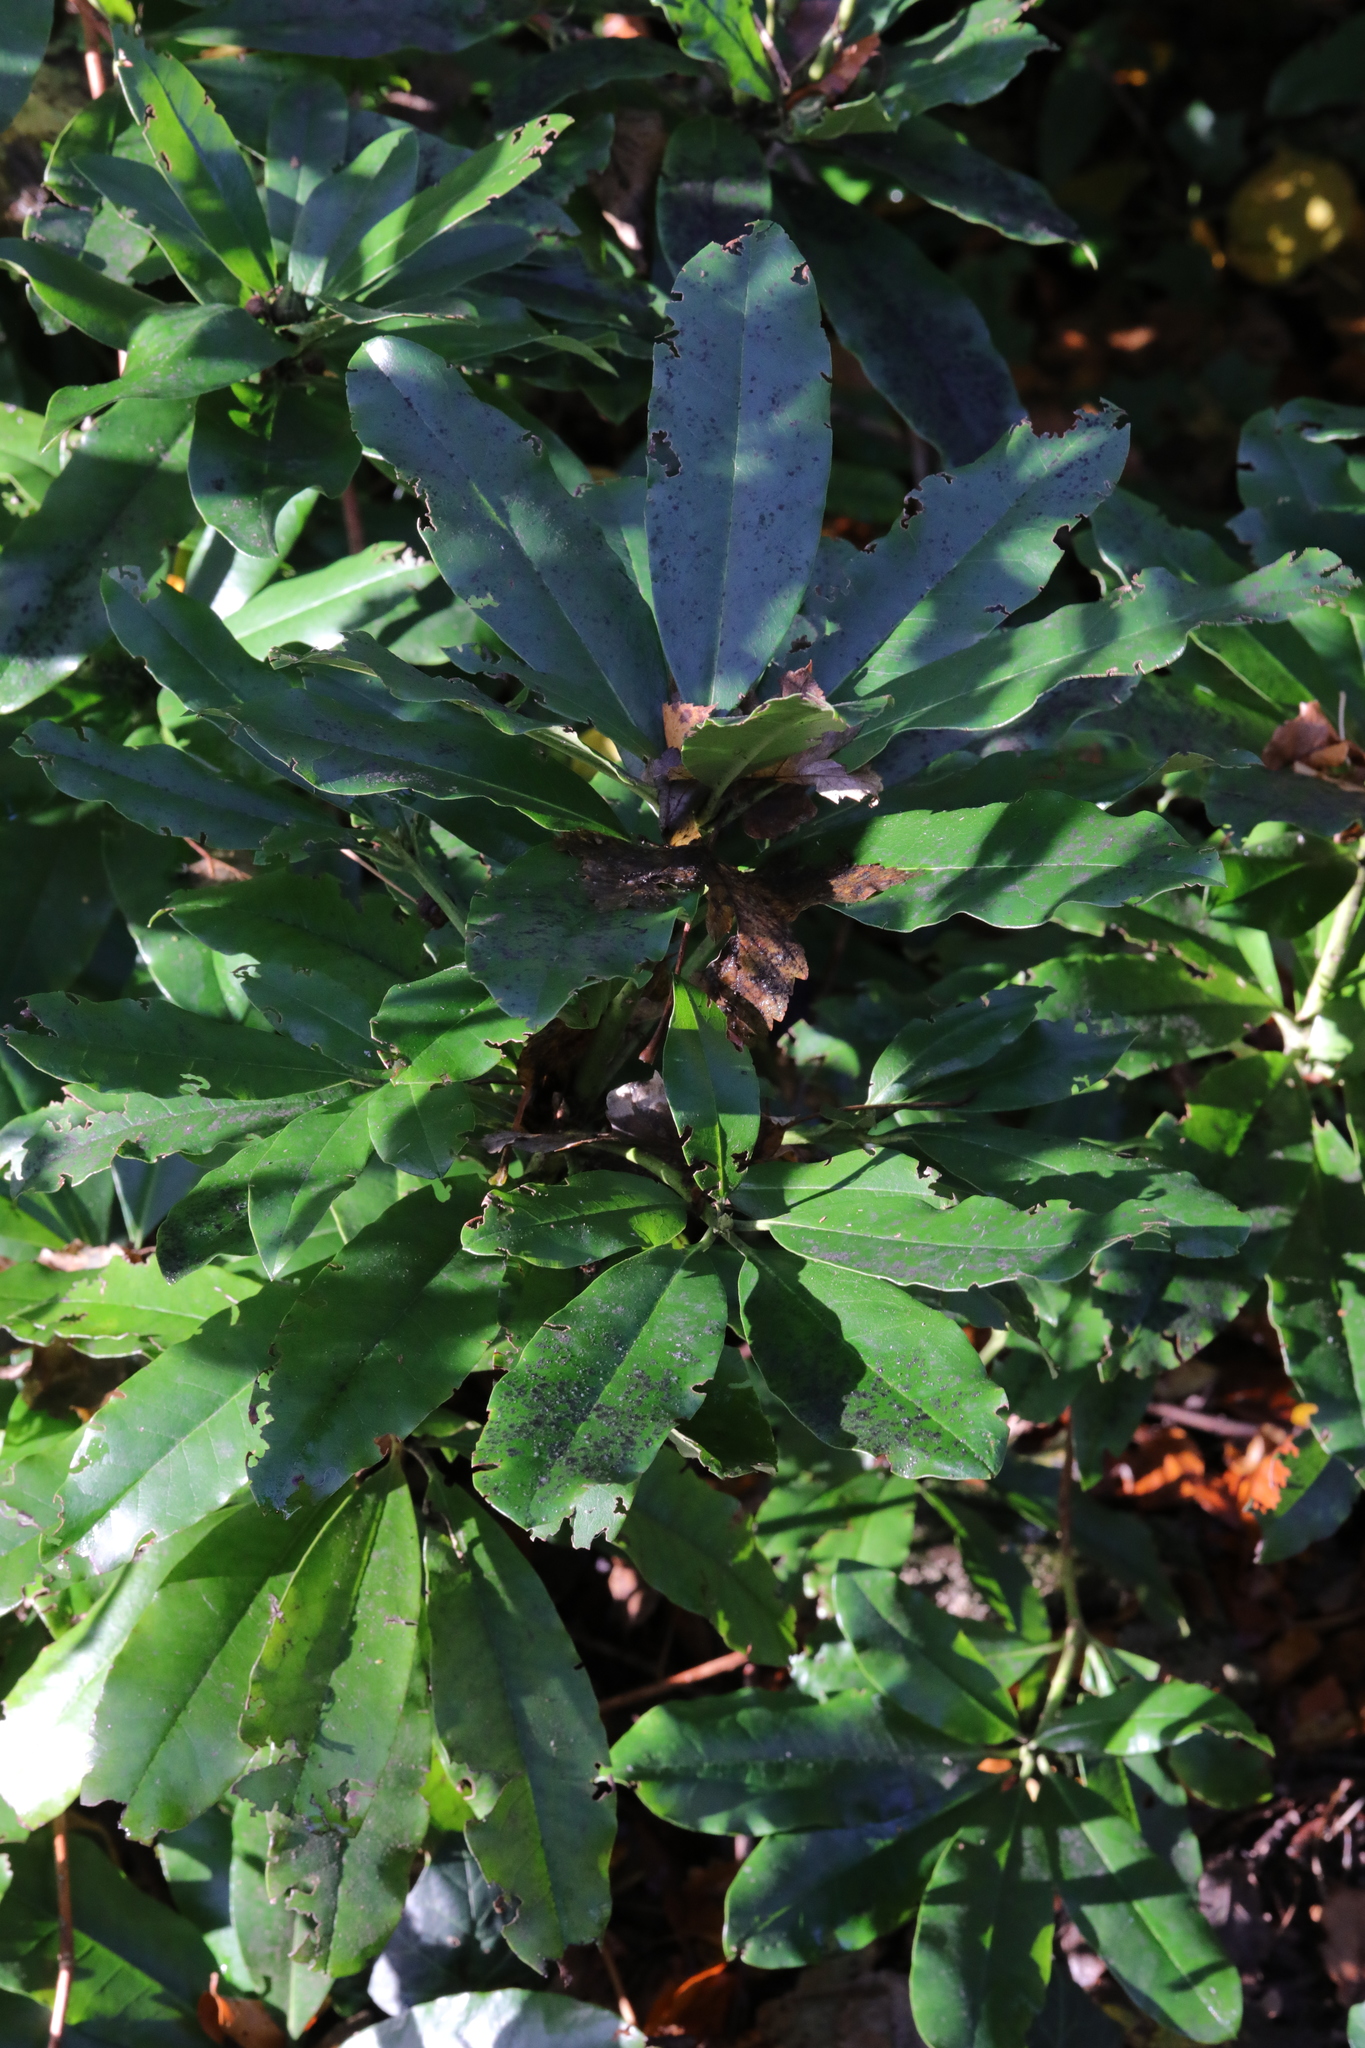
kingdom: Plantae
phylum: Tracheophyta
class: Magnoliopsida
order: Ericales
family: Ericaceae
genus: Rhododendron
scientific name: Rhododendron ponticum
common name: Rhododendron
